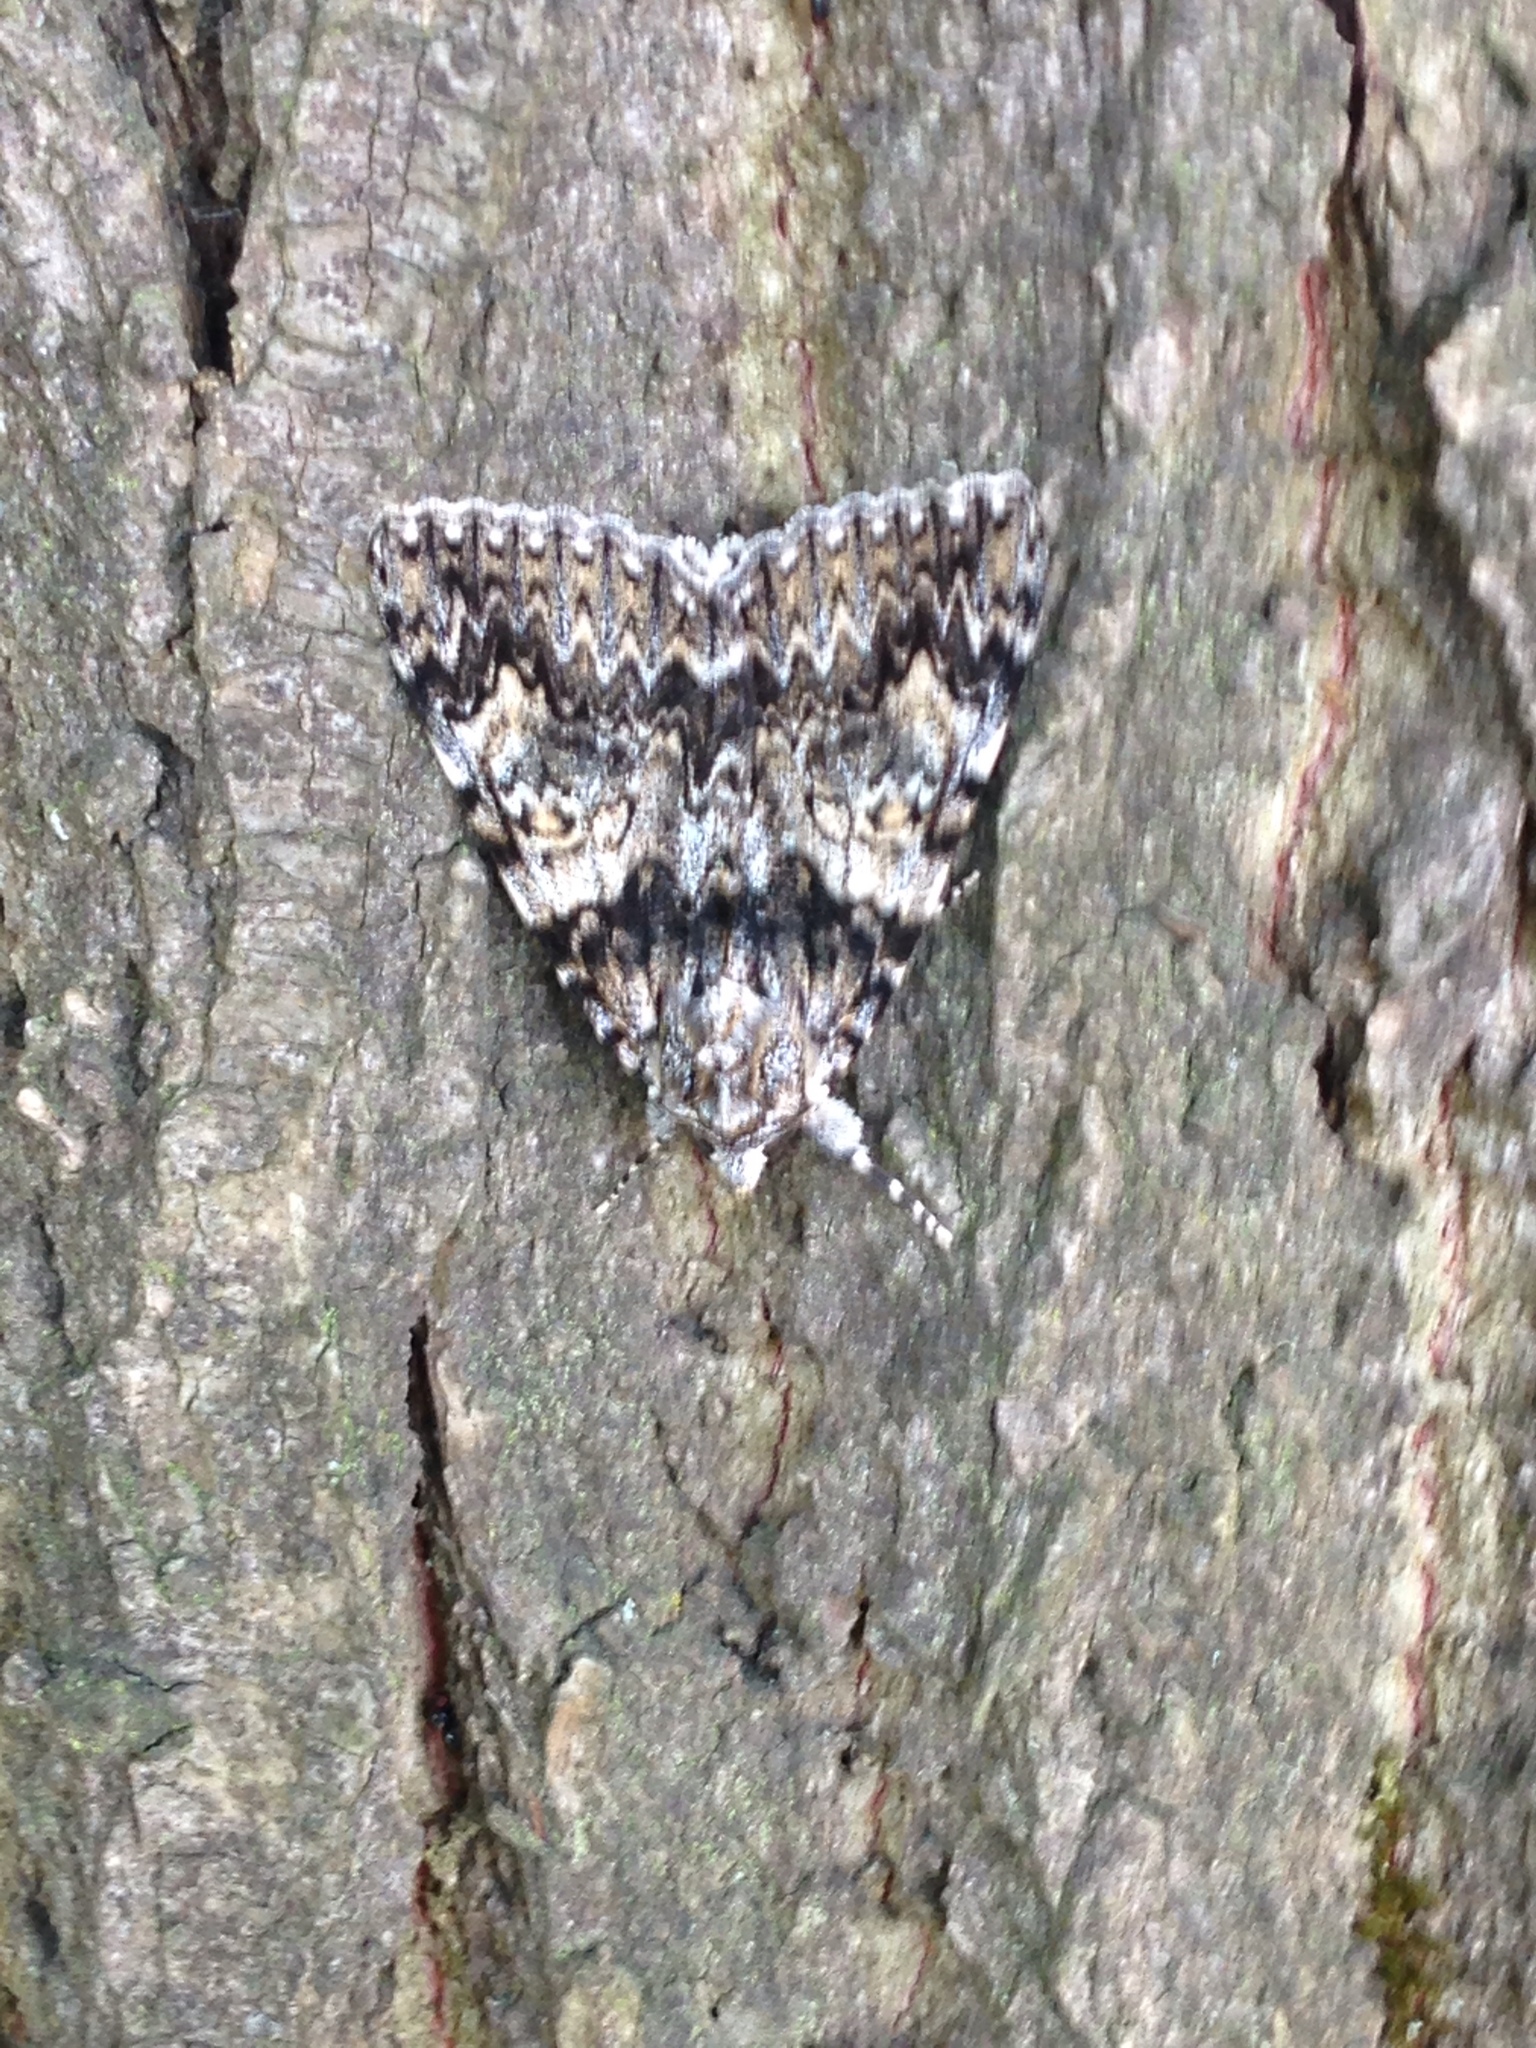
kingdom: Animalia
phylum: Arthropoda
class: Insecta
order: Lepidoptera
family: Erebidae
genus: Catocala
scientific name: Catocala promissa
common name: Light crimson underwing
